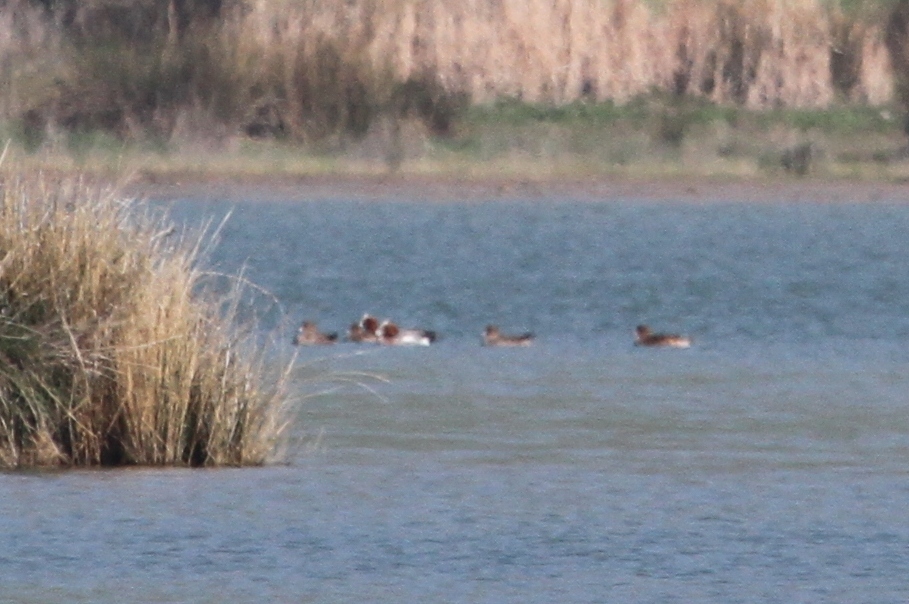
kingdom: Animalia
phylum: Chordata
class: Aves
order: Anseriformes
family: Anatidae
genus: Mareca
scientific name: Mareca penelope
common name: Eurasian wigeon
